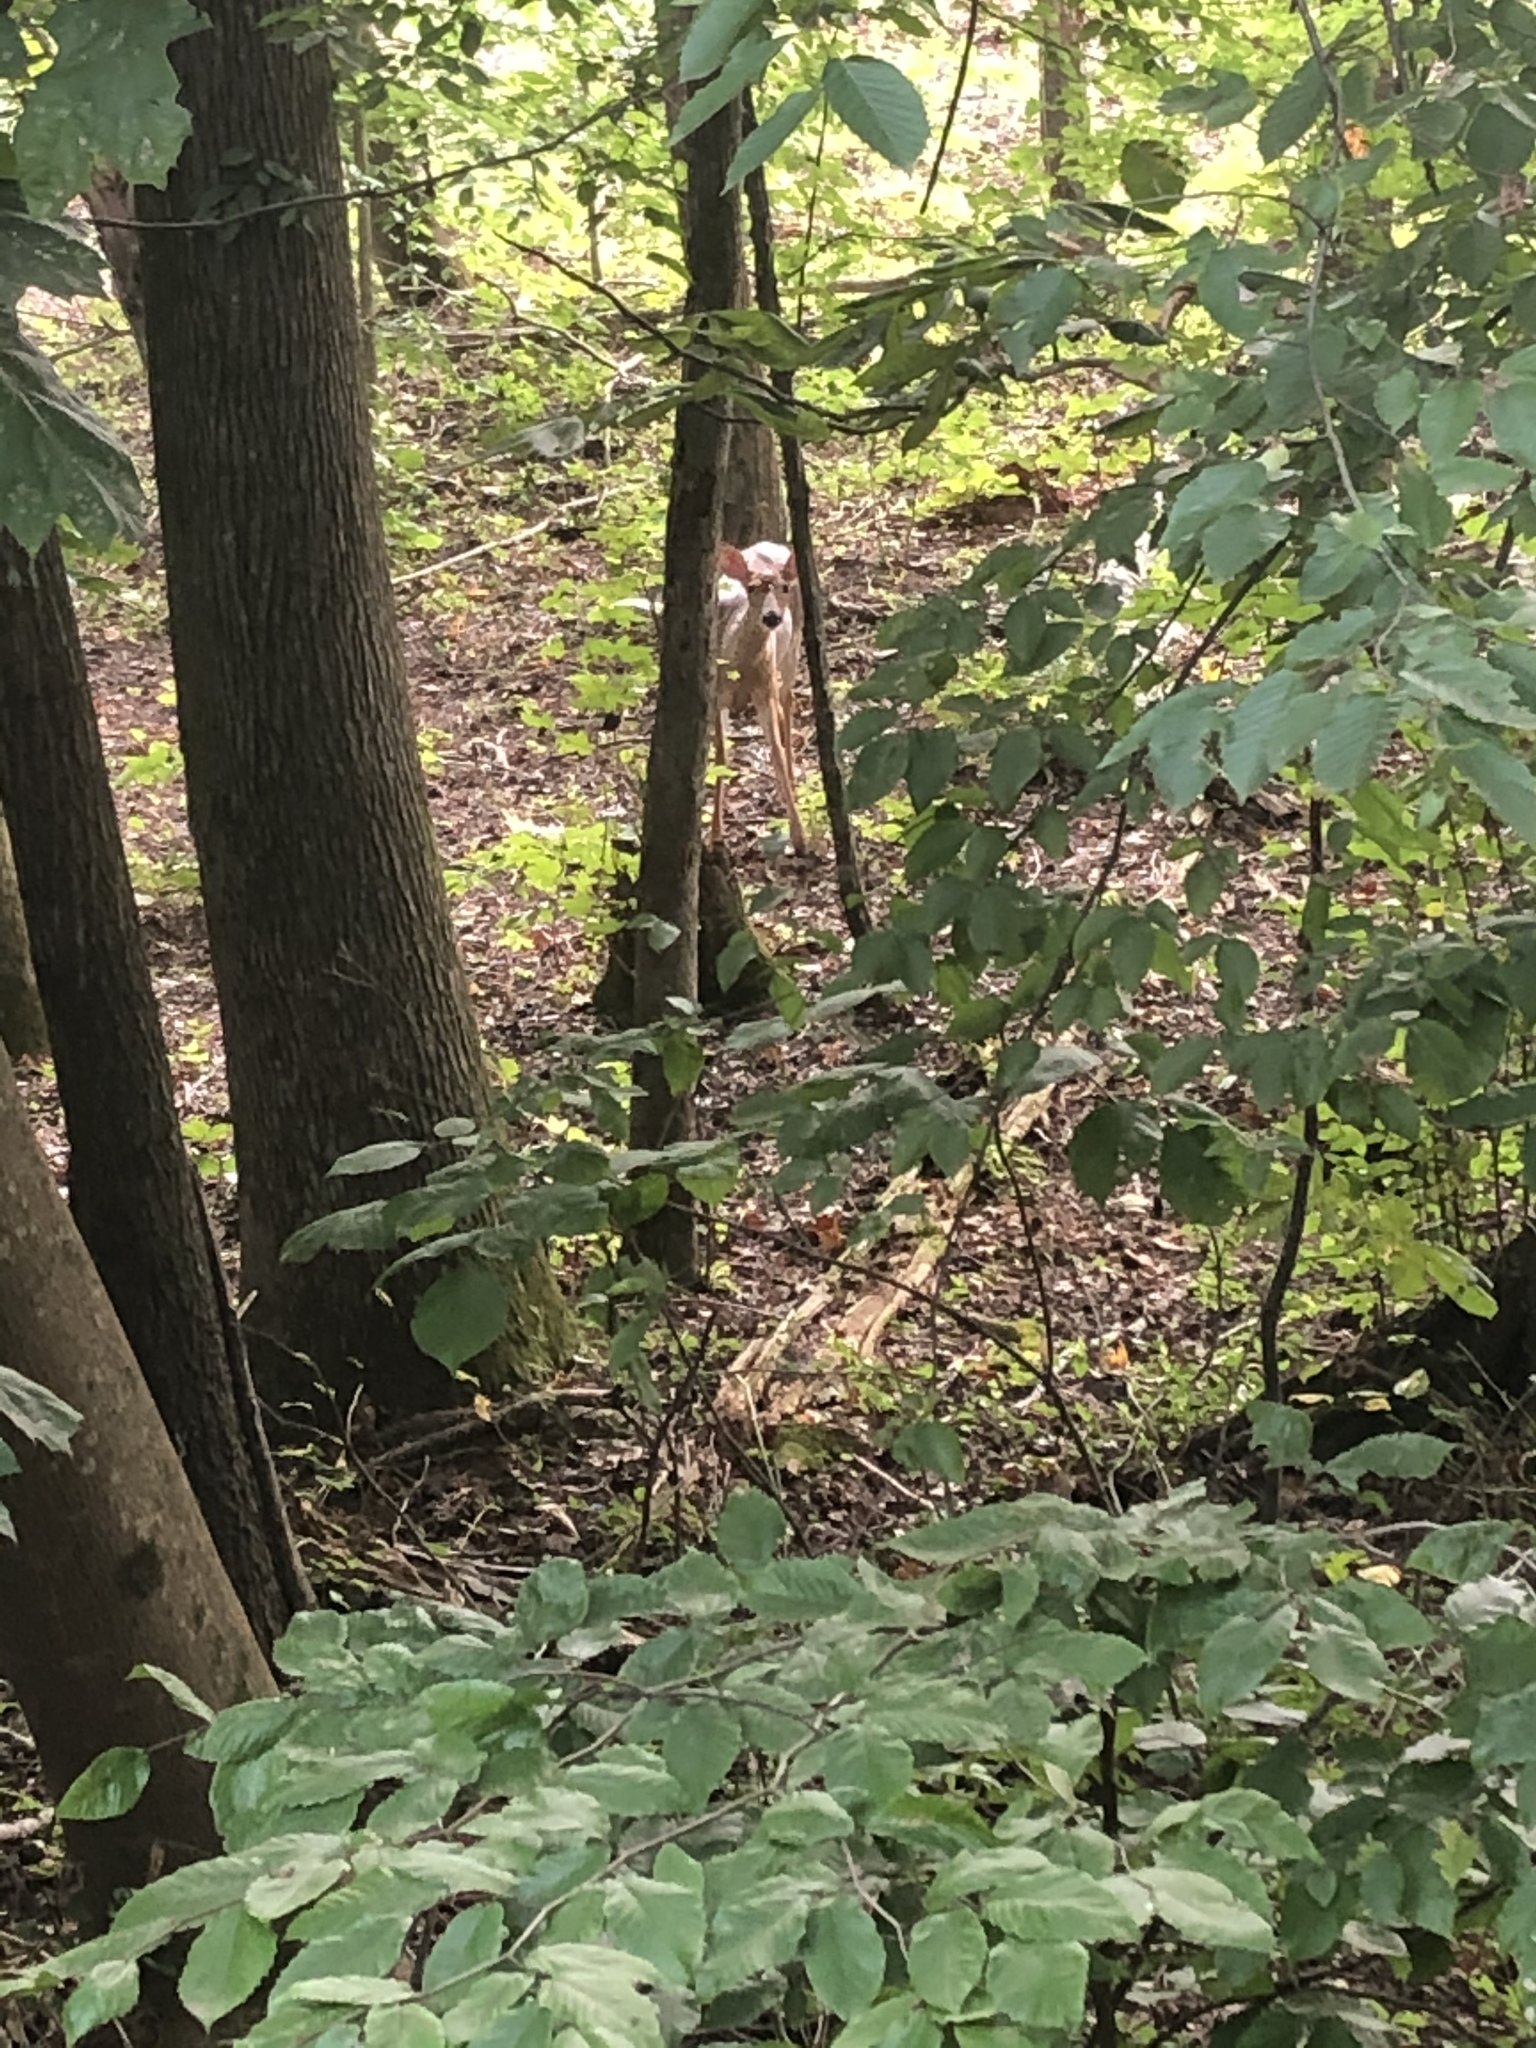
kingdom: Animalia
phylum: Chordata
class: Mammalia
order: Artiodactyla
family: Cervidae
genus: Odocoileus
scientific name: Odocoileus virginianus
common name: White-tailed deer
